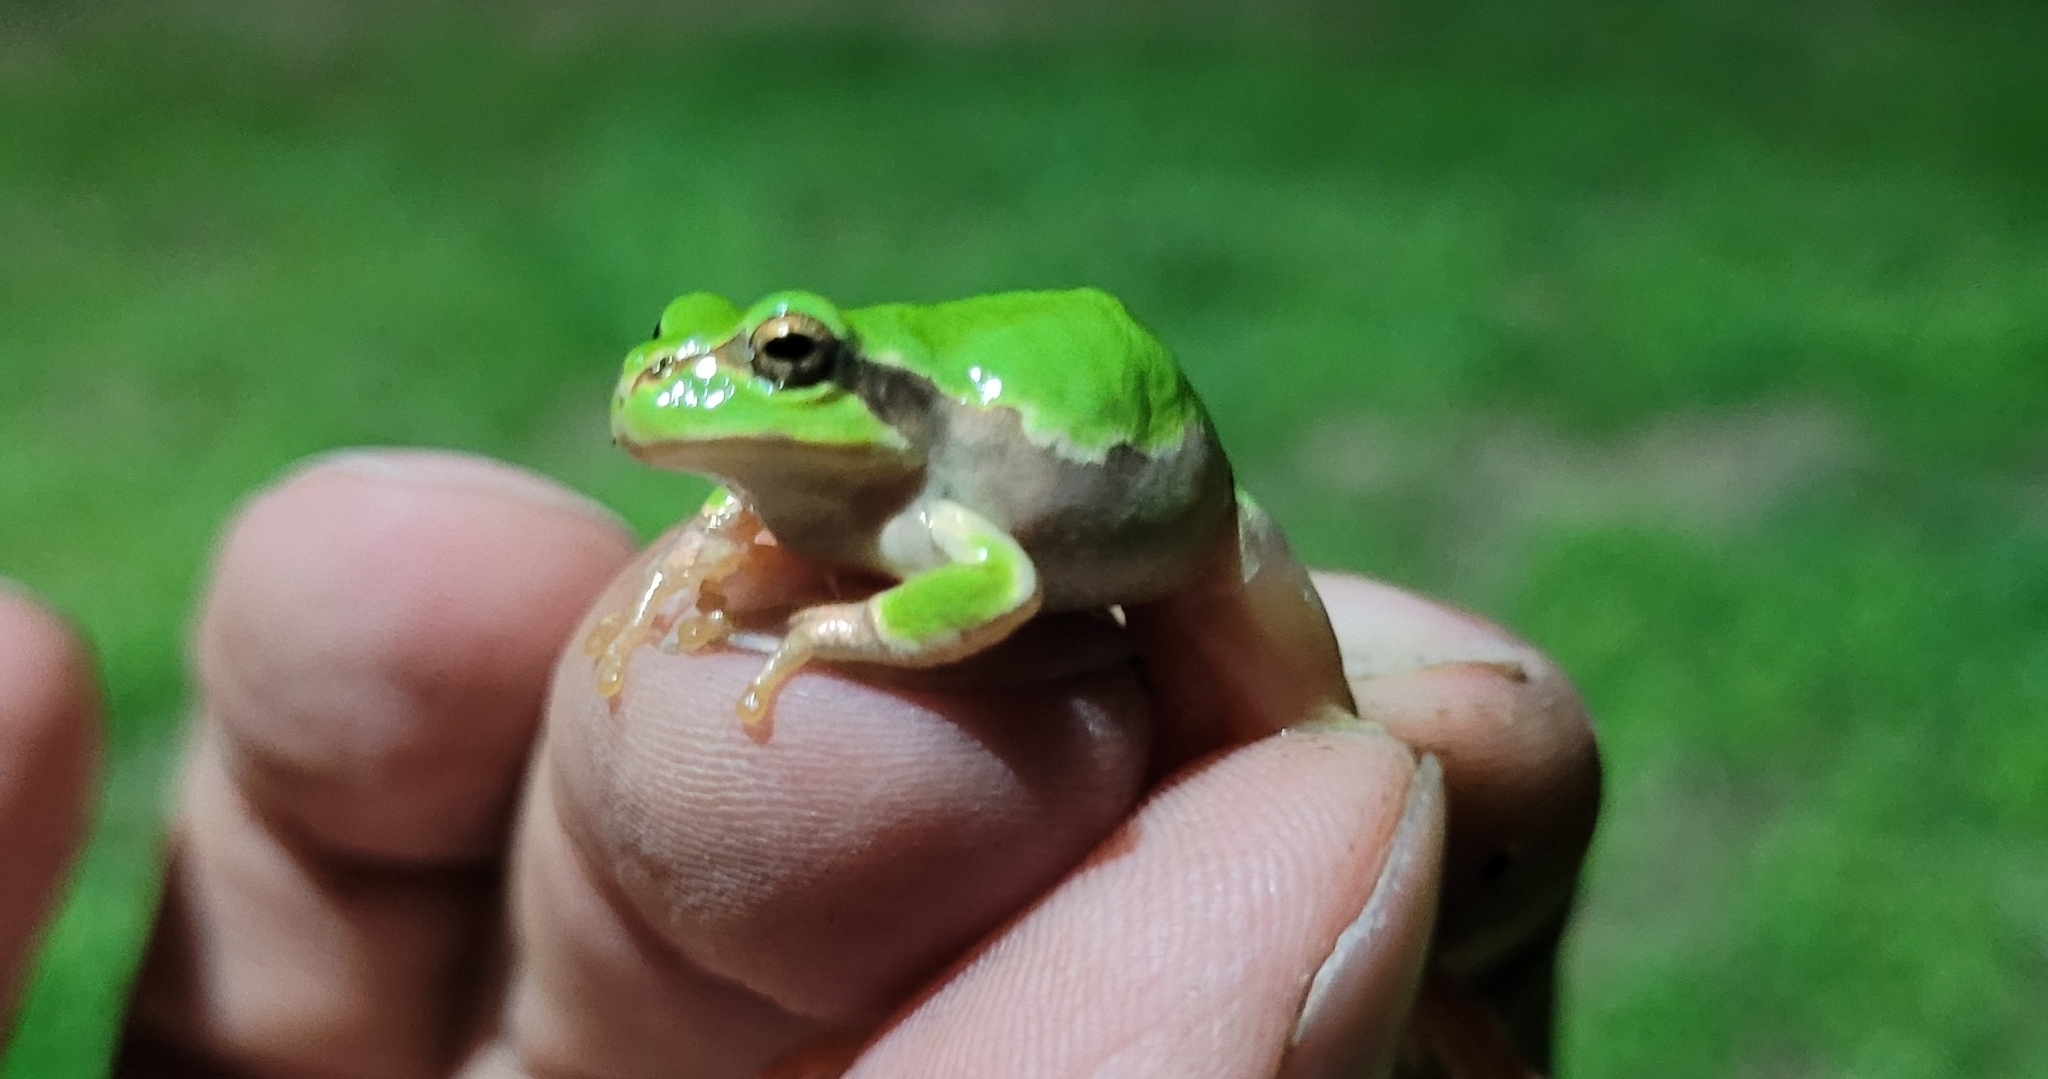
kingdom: Animalia
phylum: Chordata
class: Amphibia
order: Anura
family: Hylidae
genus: Dryophytes
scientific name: Dryophytes japonicus
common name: Japanese treefrog
